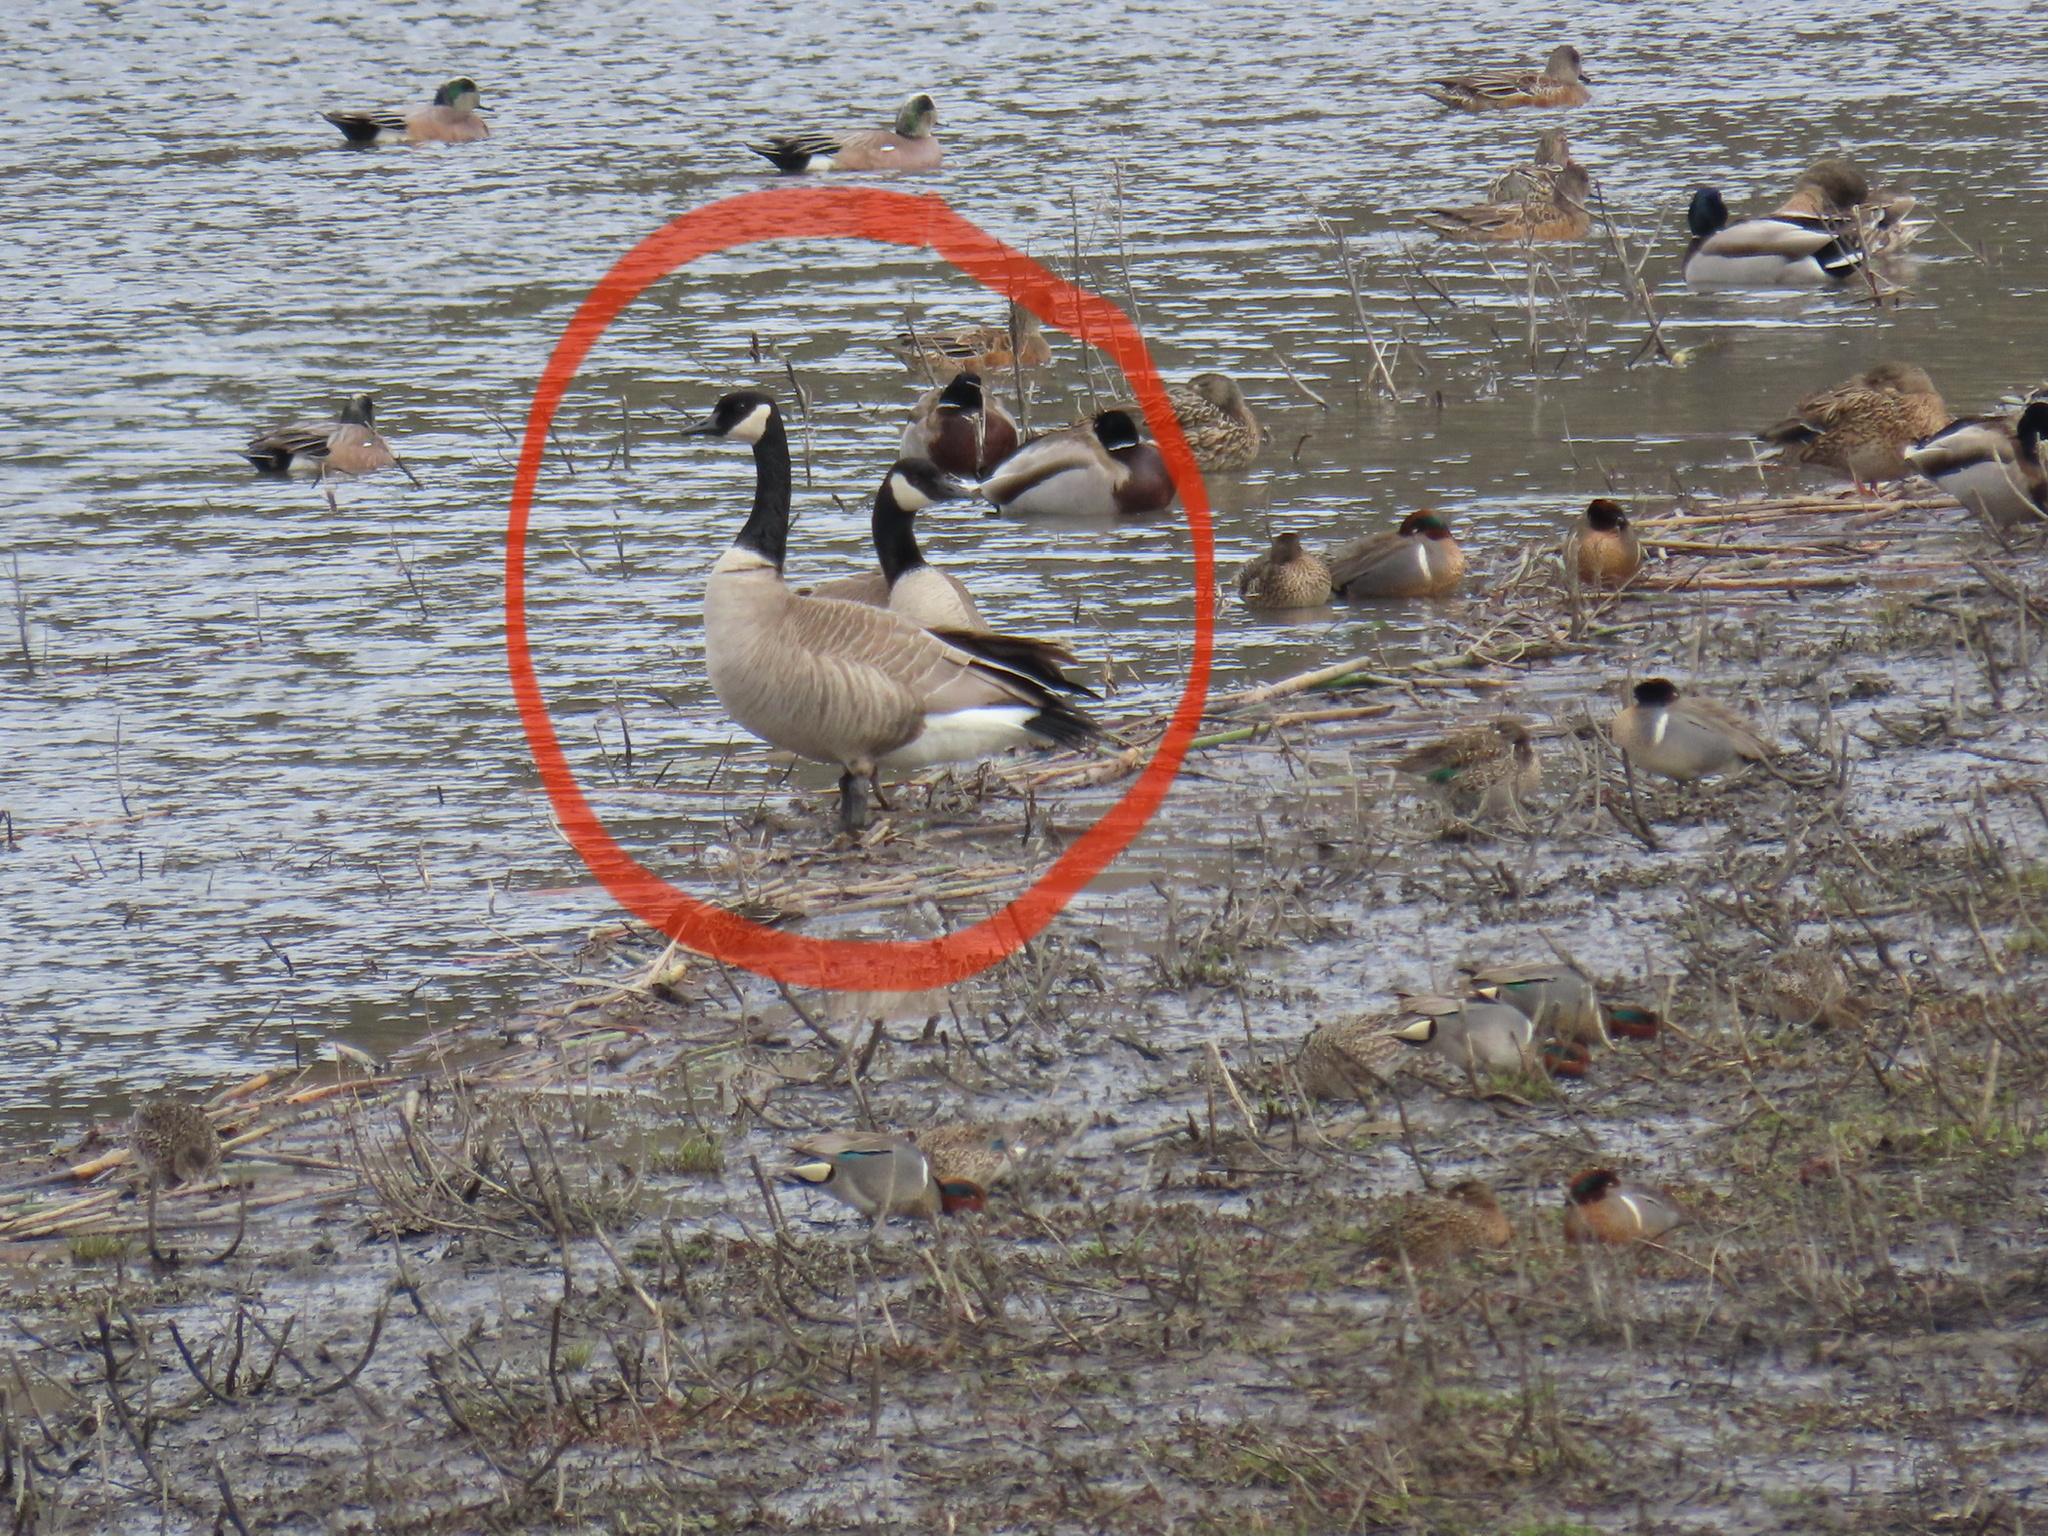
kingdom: Animalia
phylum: Chordata
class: Aves
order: Anseriformes
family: Anatidae
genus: Branta
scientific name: Branta canadensis
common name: Canada goose
